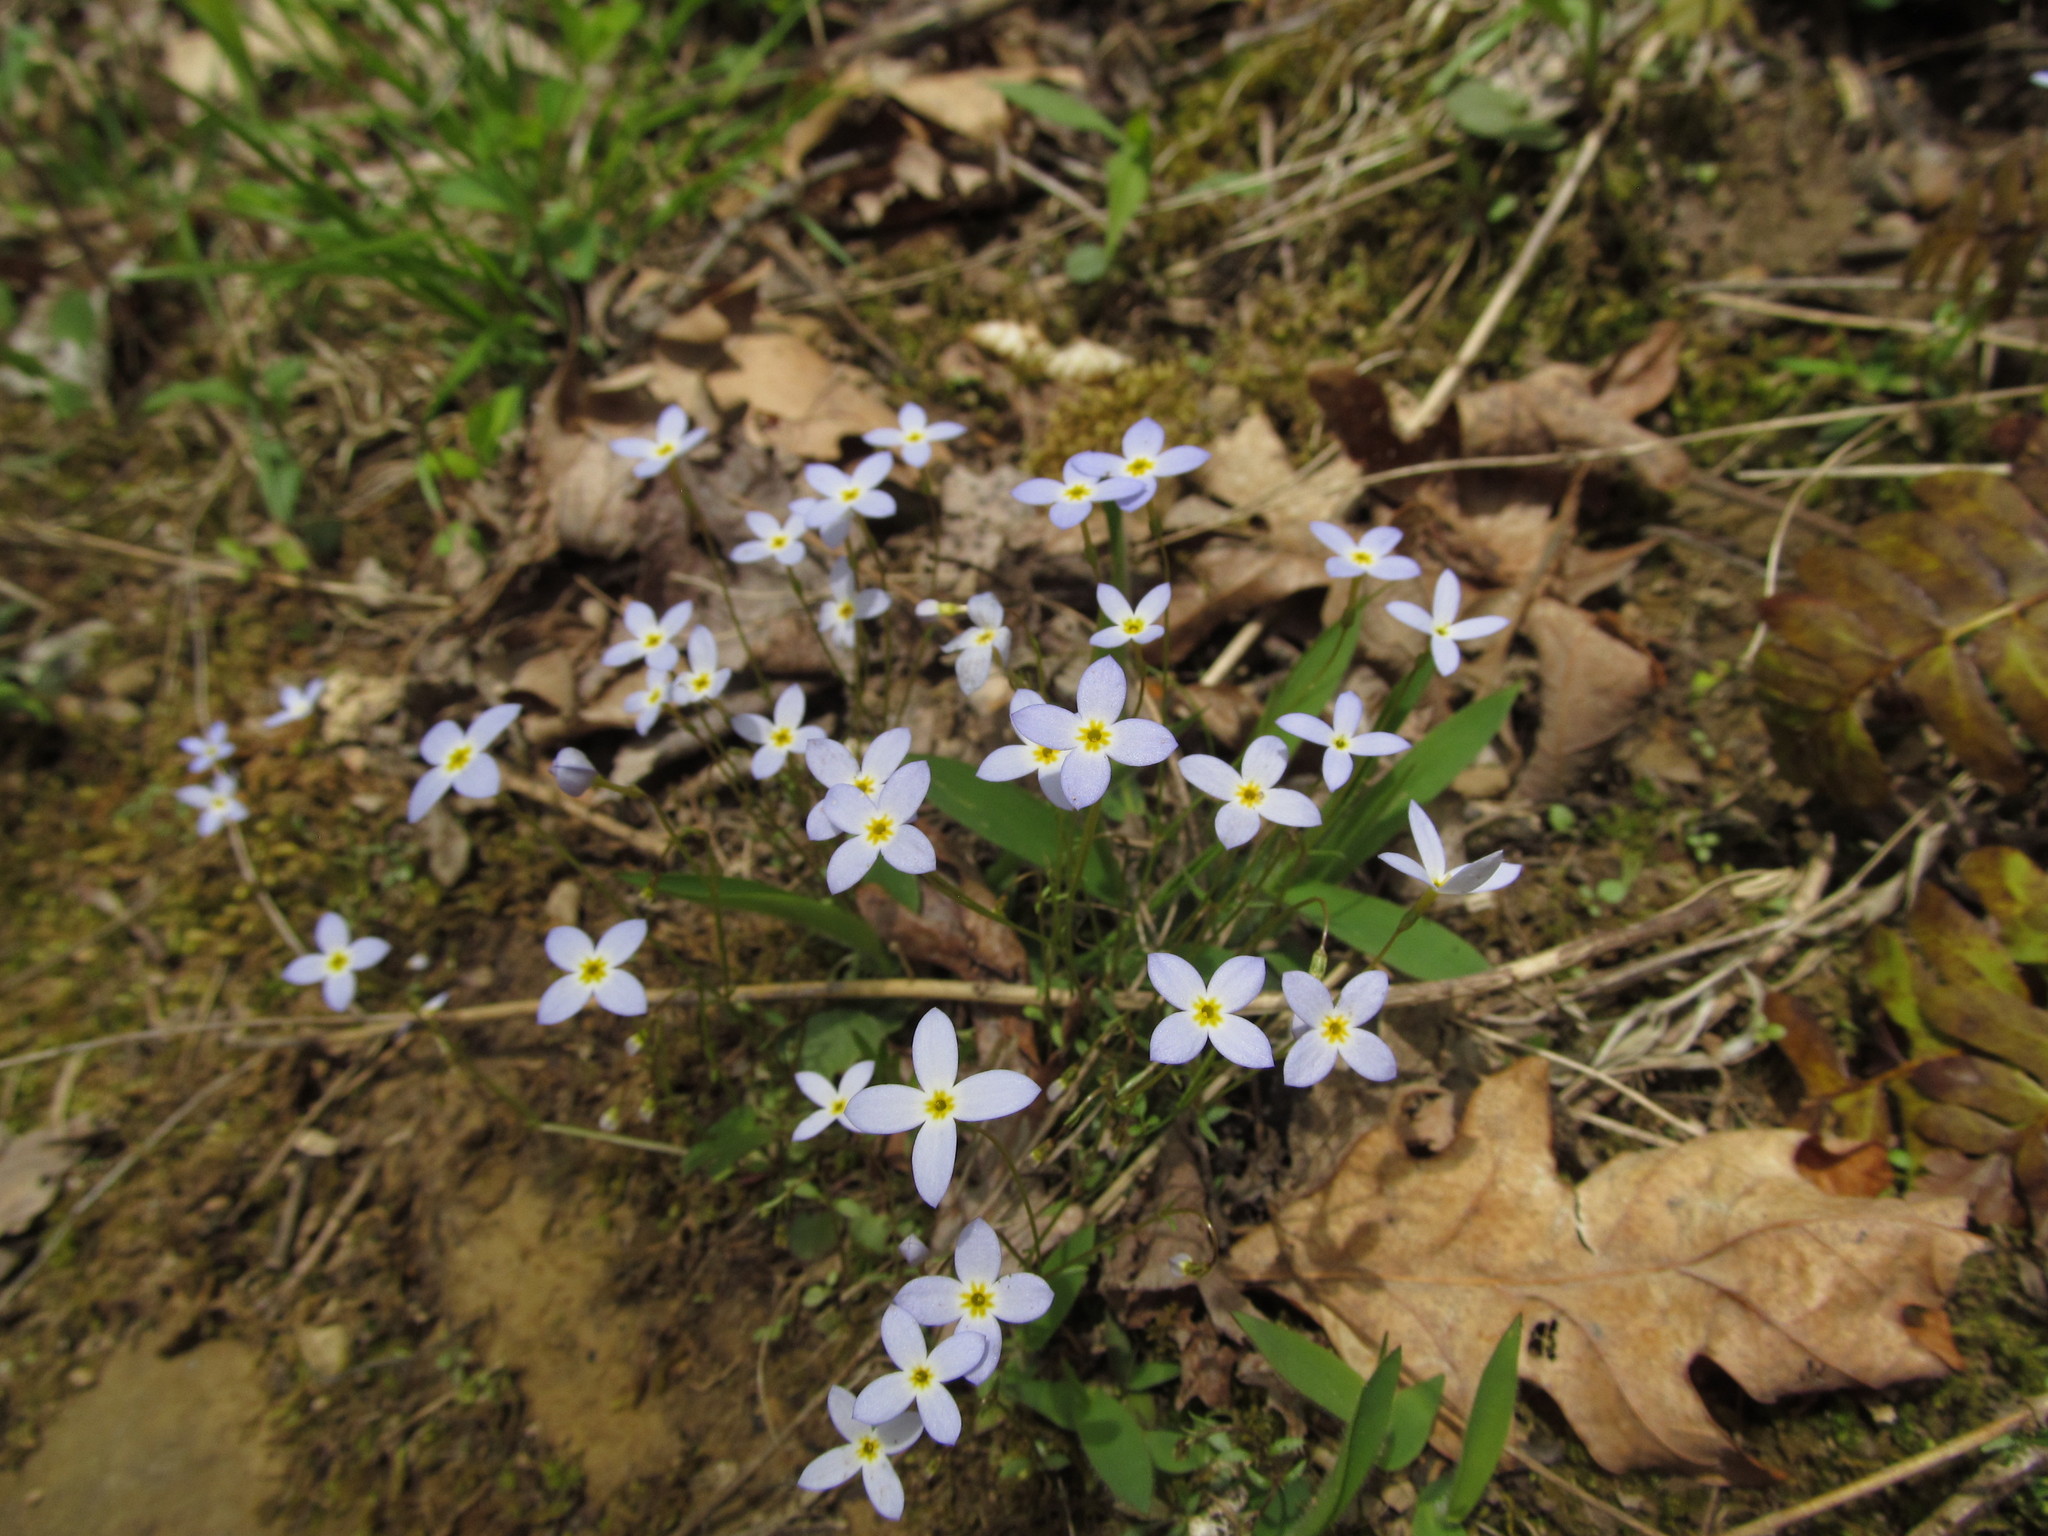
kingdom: Plantae
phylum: Tracheophyta
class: Magnoliopsida
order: Gentianales
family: Rubiaceae
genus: Houstonia
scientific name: Houstonia caerulea
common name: Bluets
